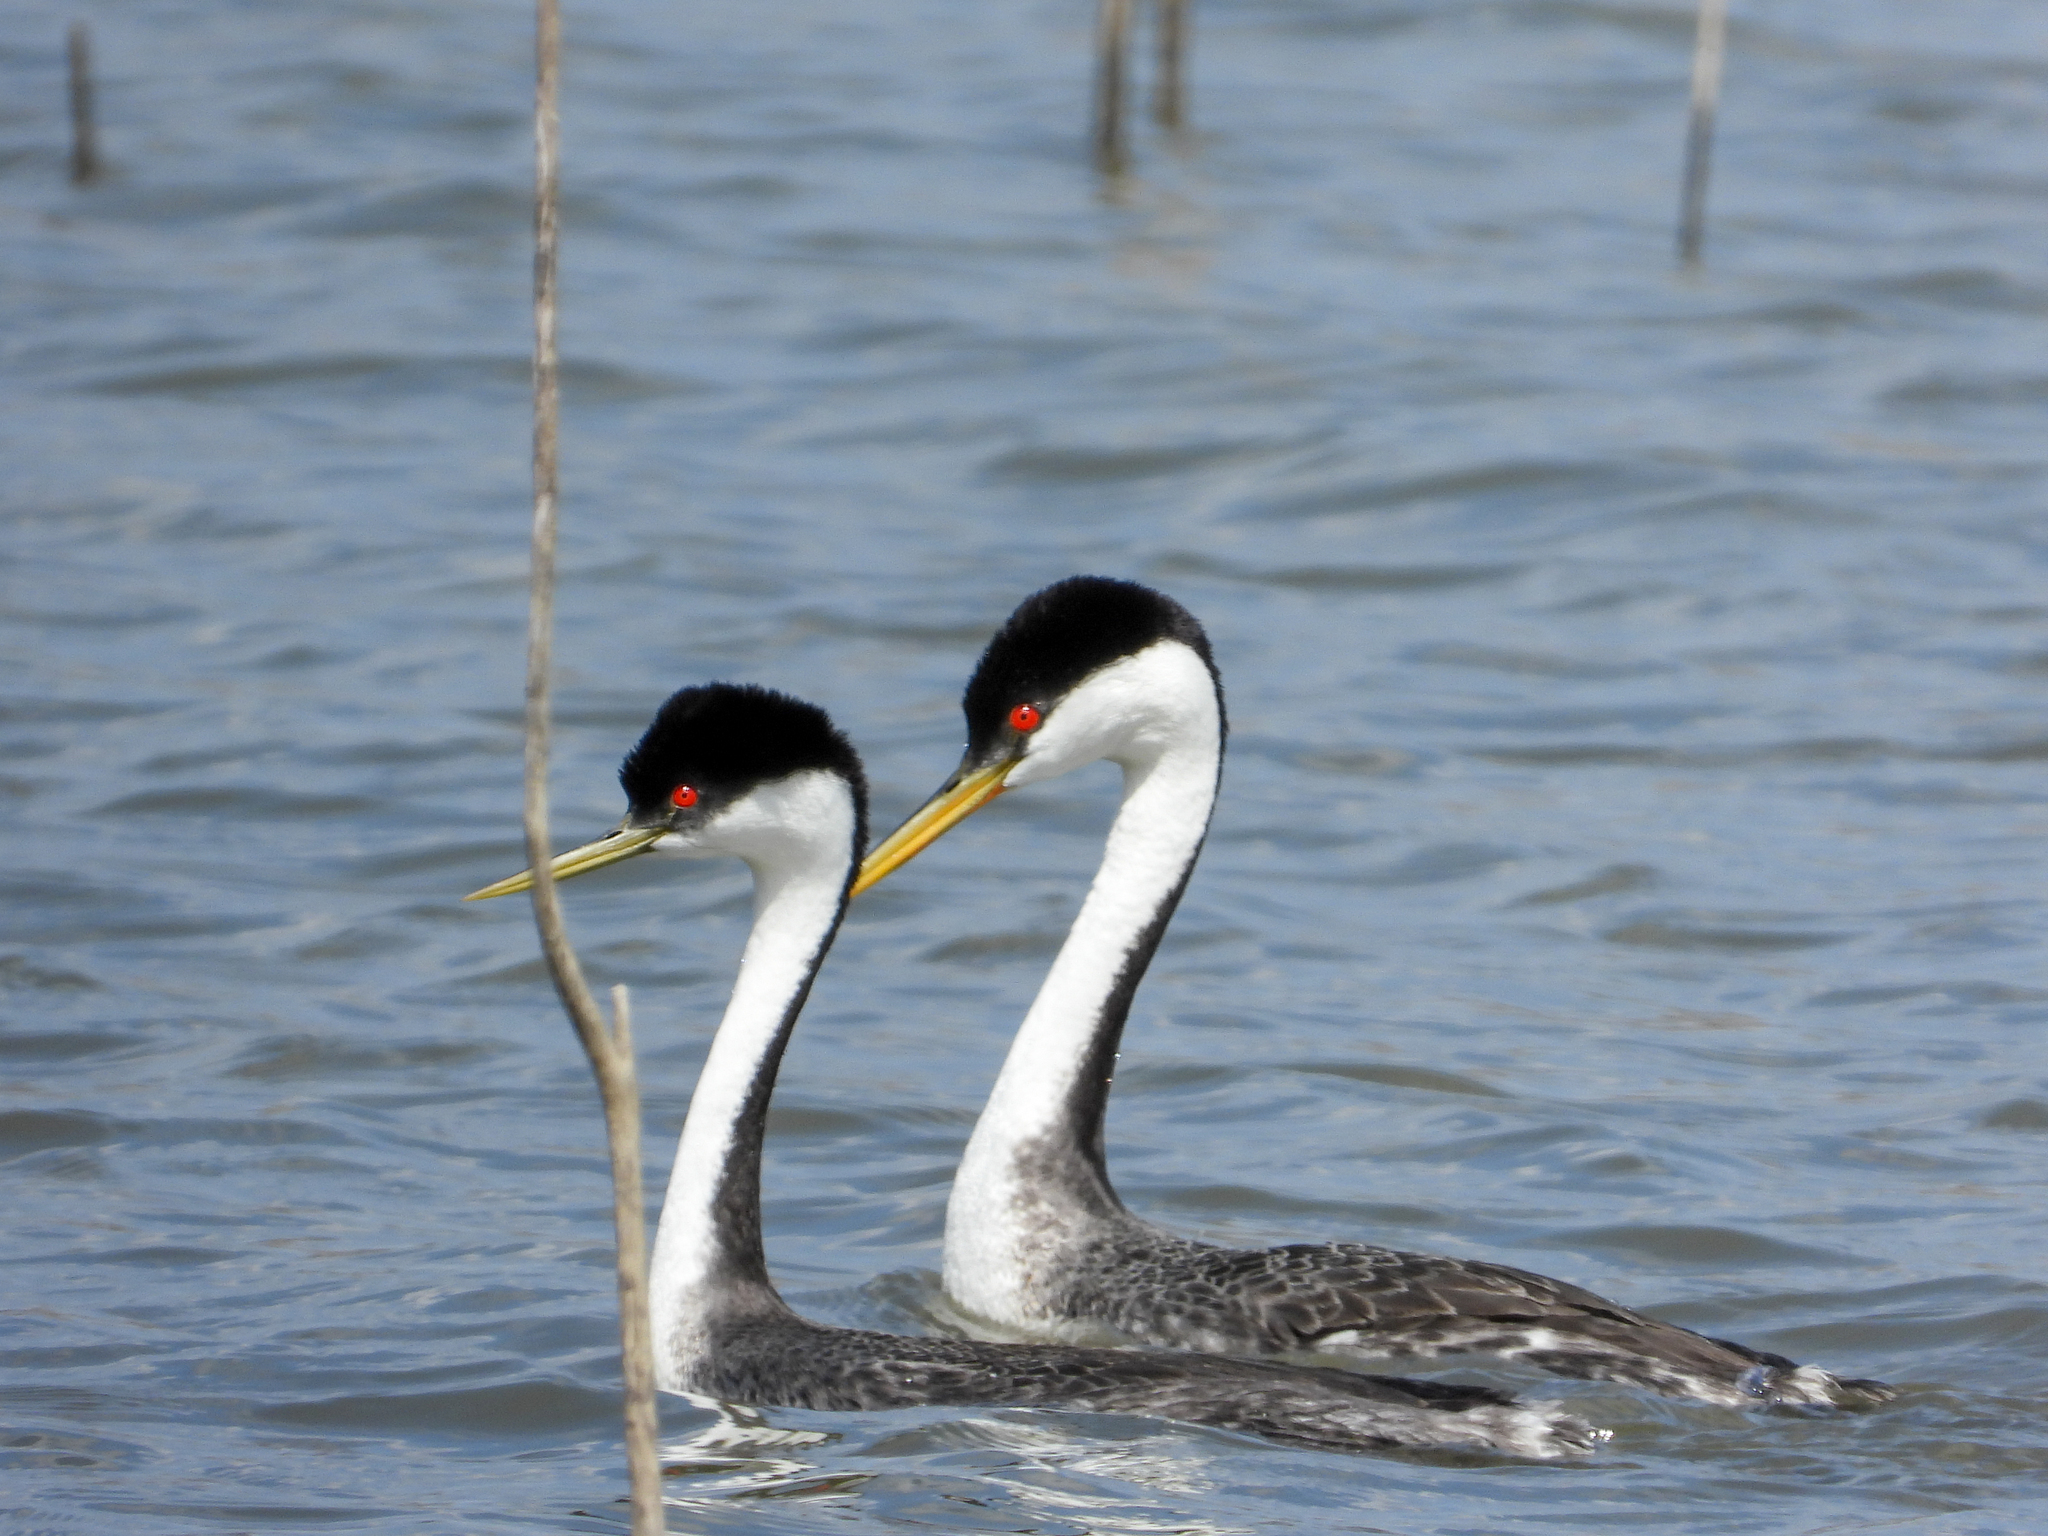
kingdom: Animalia
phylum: Chordata
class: Aves
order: Podicipediformes
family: Podicipedidae
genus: Aechmophorus
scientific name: Aechmophorus occidentalis
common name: Western grebe
